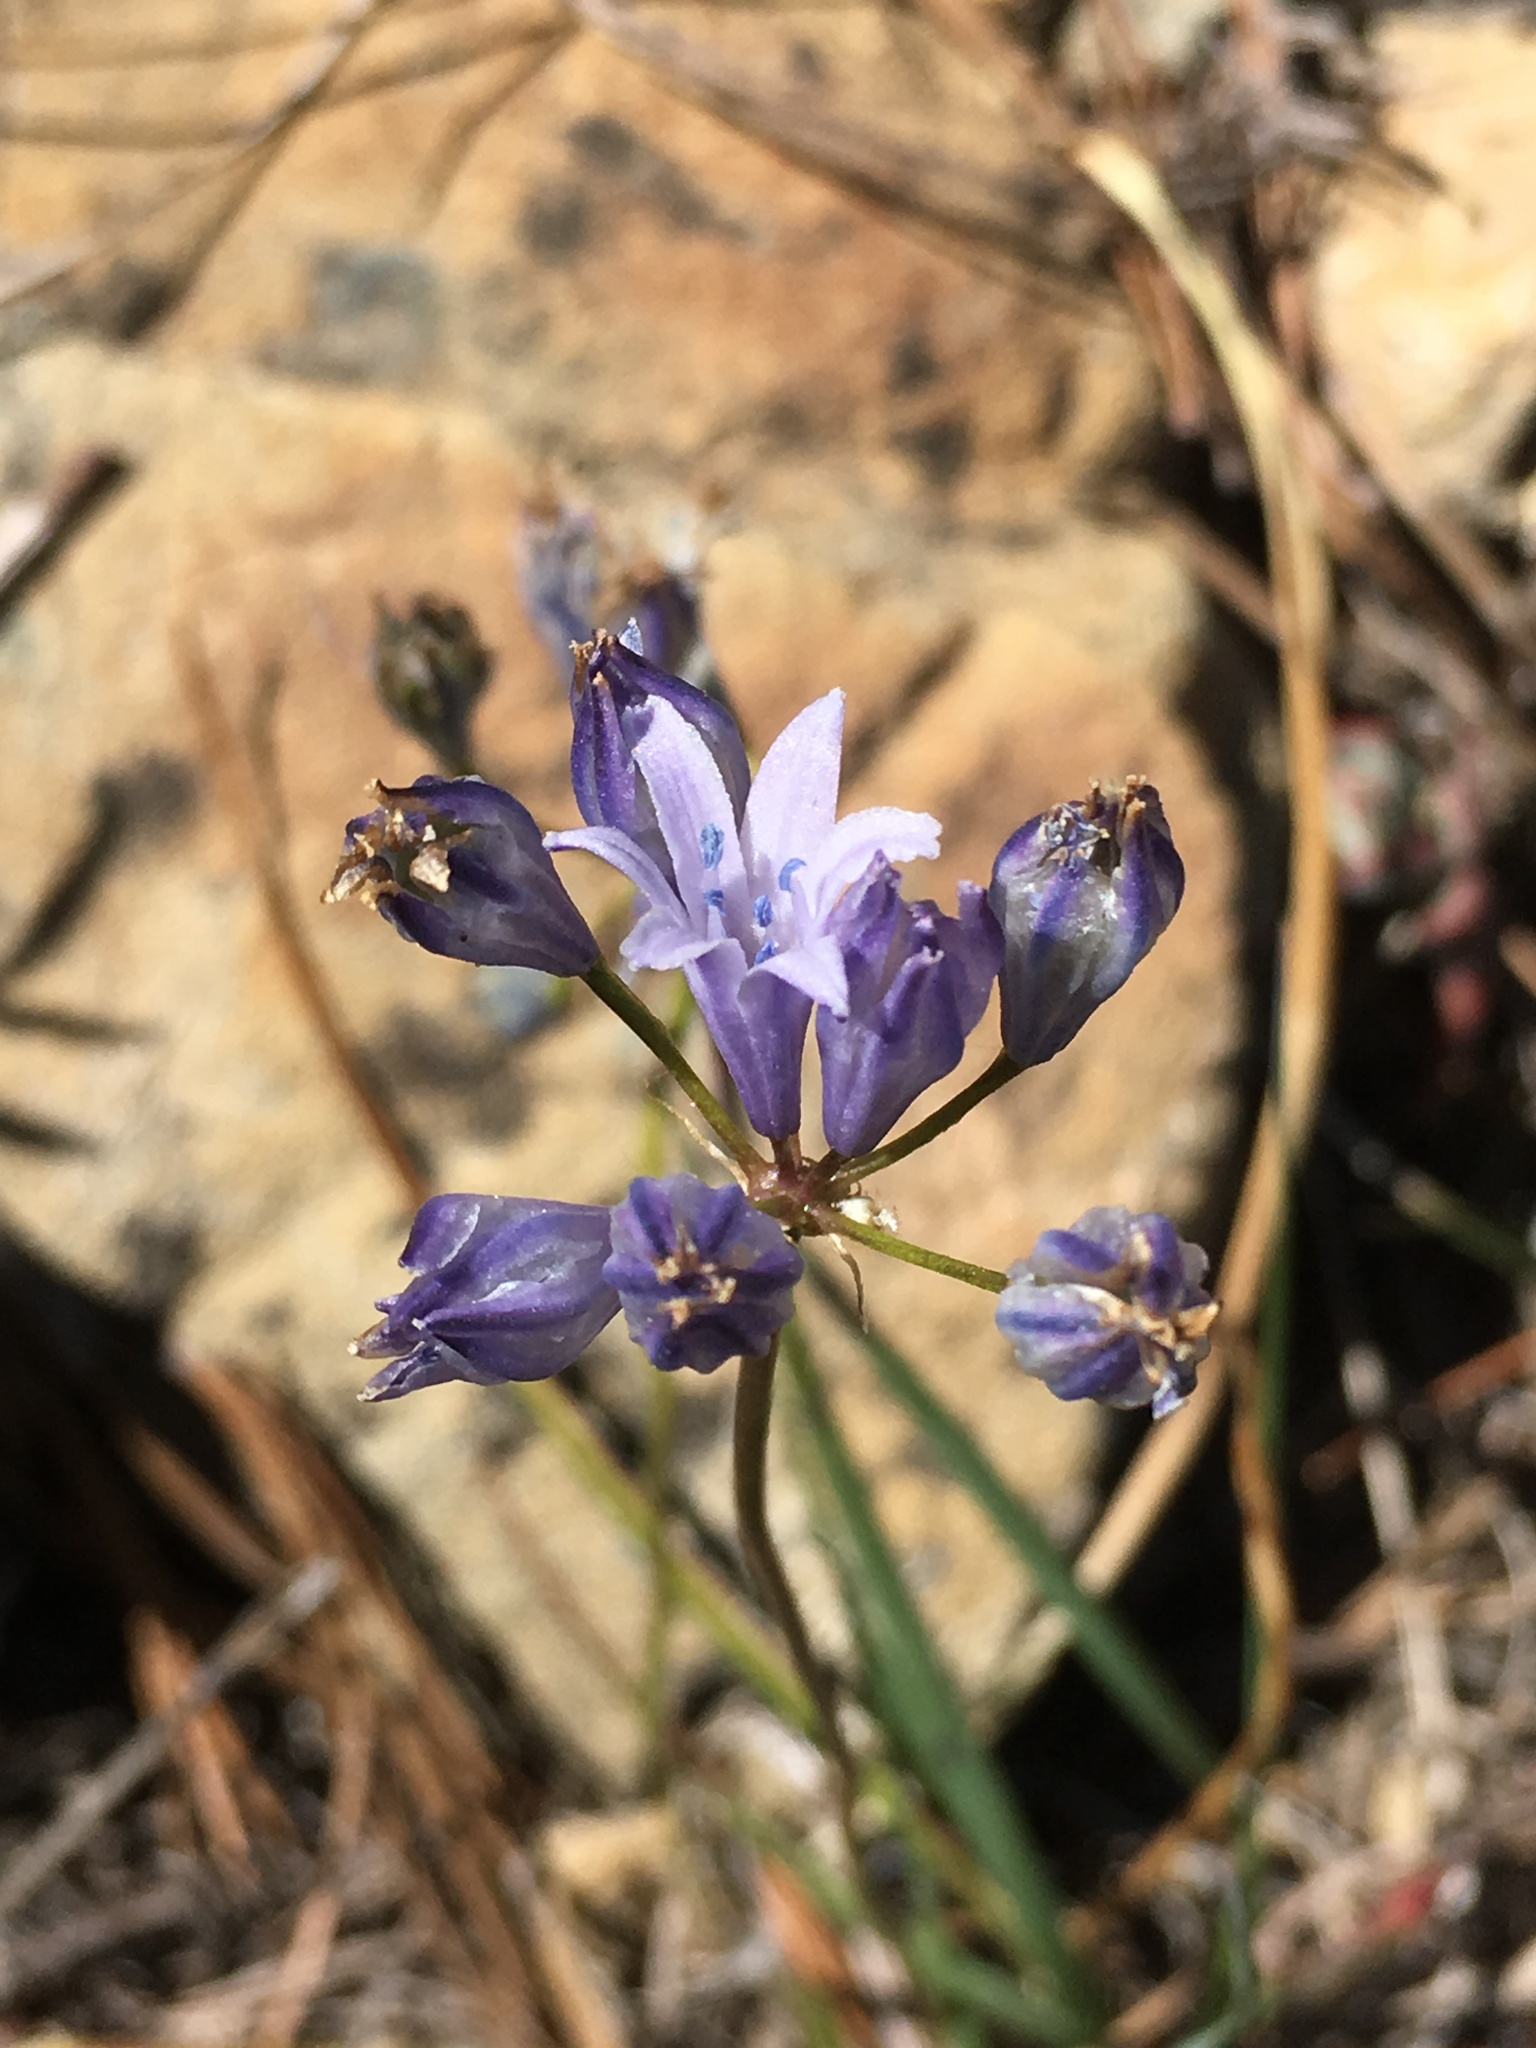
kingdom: Plantae
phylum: Tracheophyta
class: Liliopsida
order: Asparagales
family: Asparagaceae
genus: Triteleia
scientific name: Triteleia crocea
